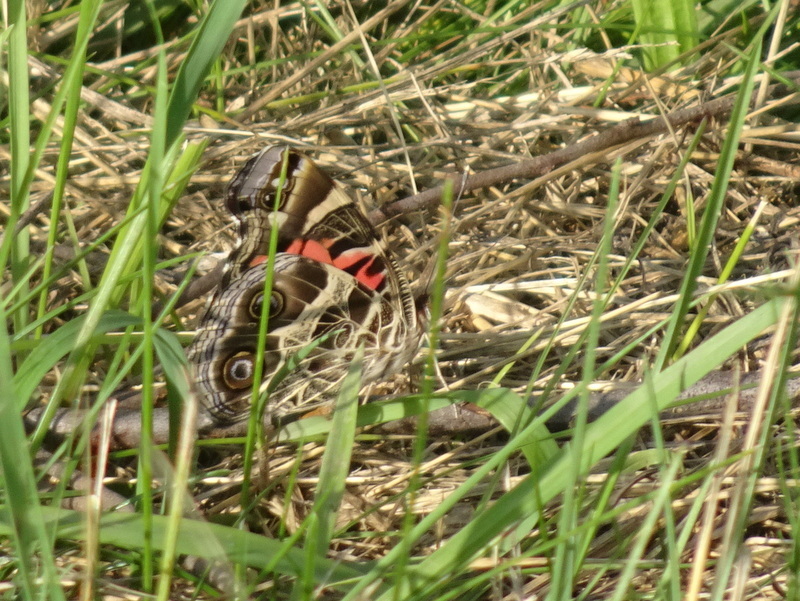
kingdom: Animalia
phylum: Arthropoda
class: Insecta
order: Lepidoptera
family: Nymphalidae
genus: Vanessa
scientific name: Vanessa virginiensis
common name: American lady
